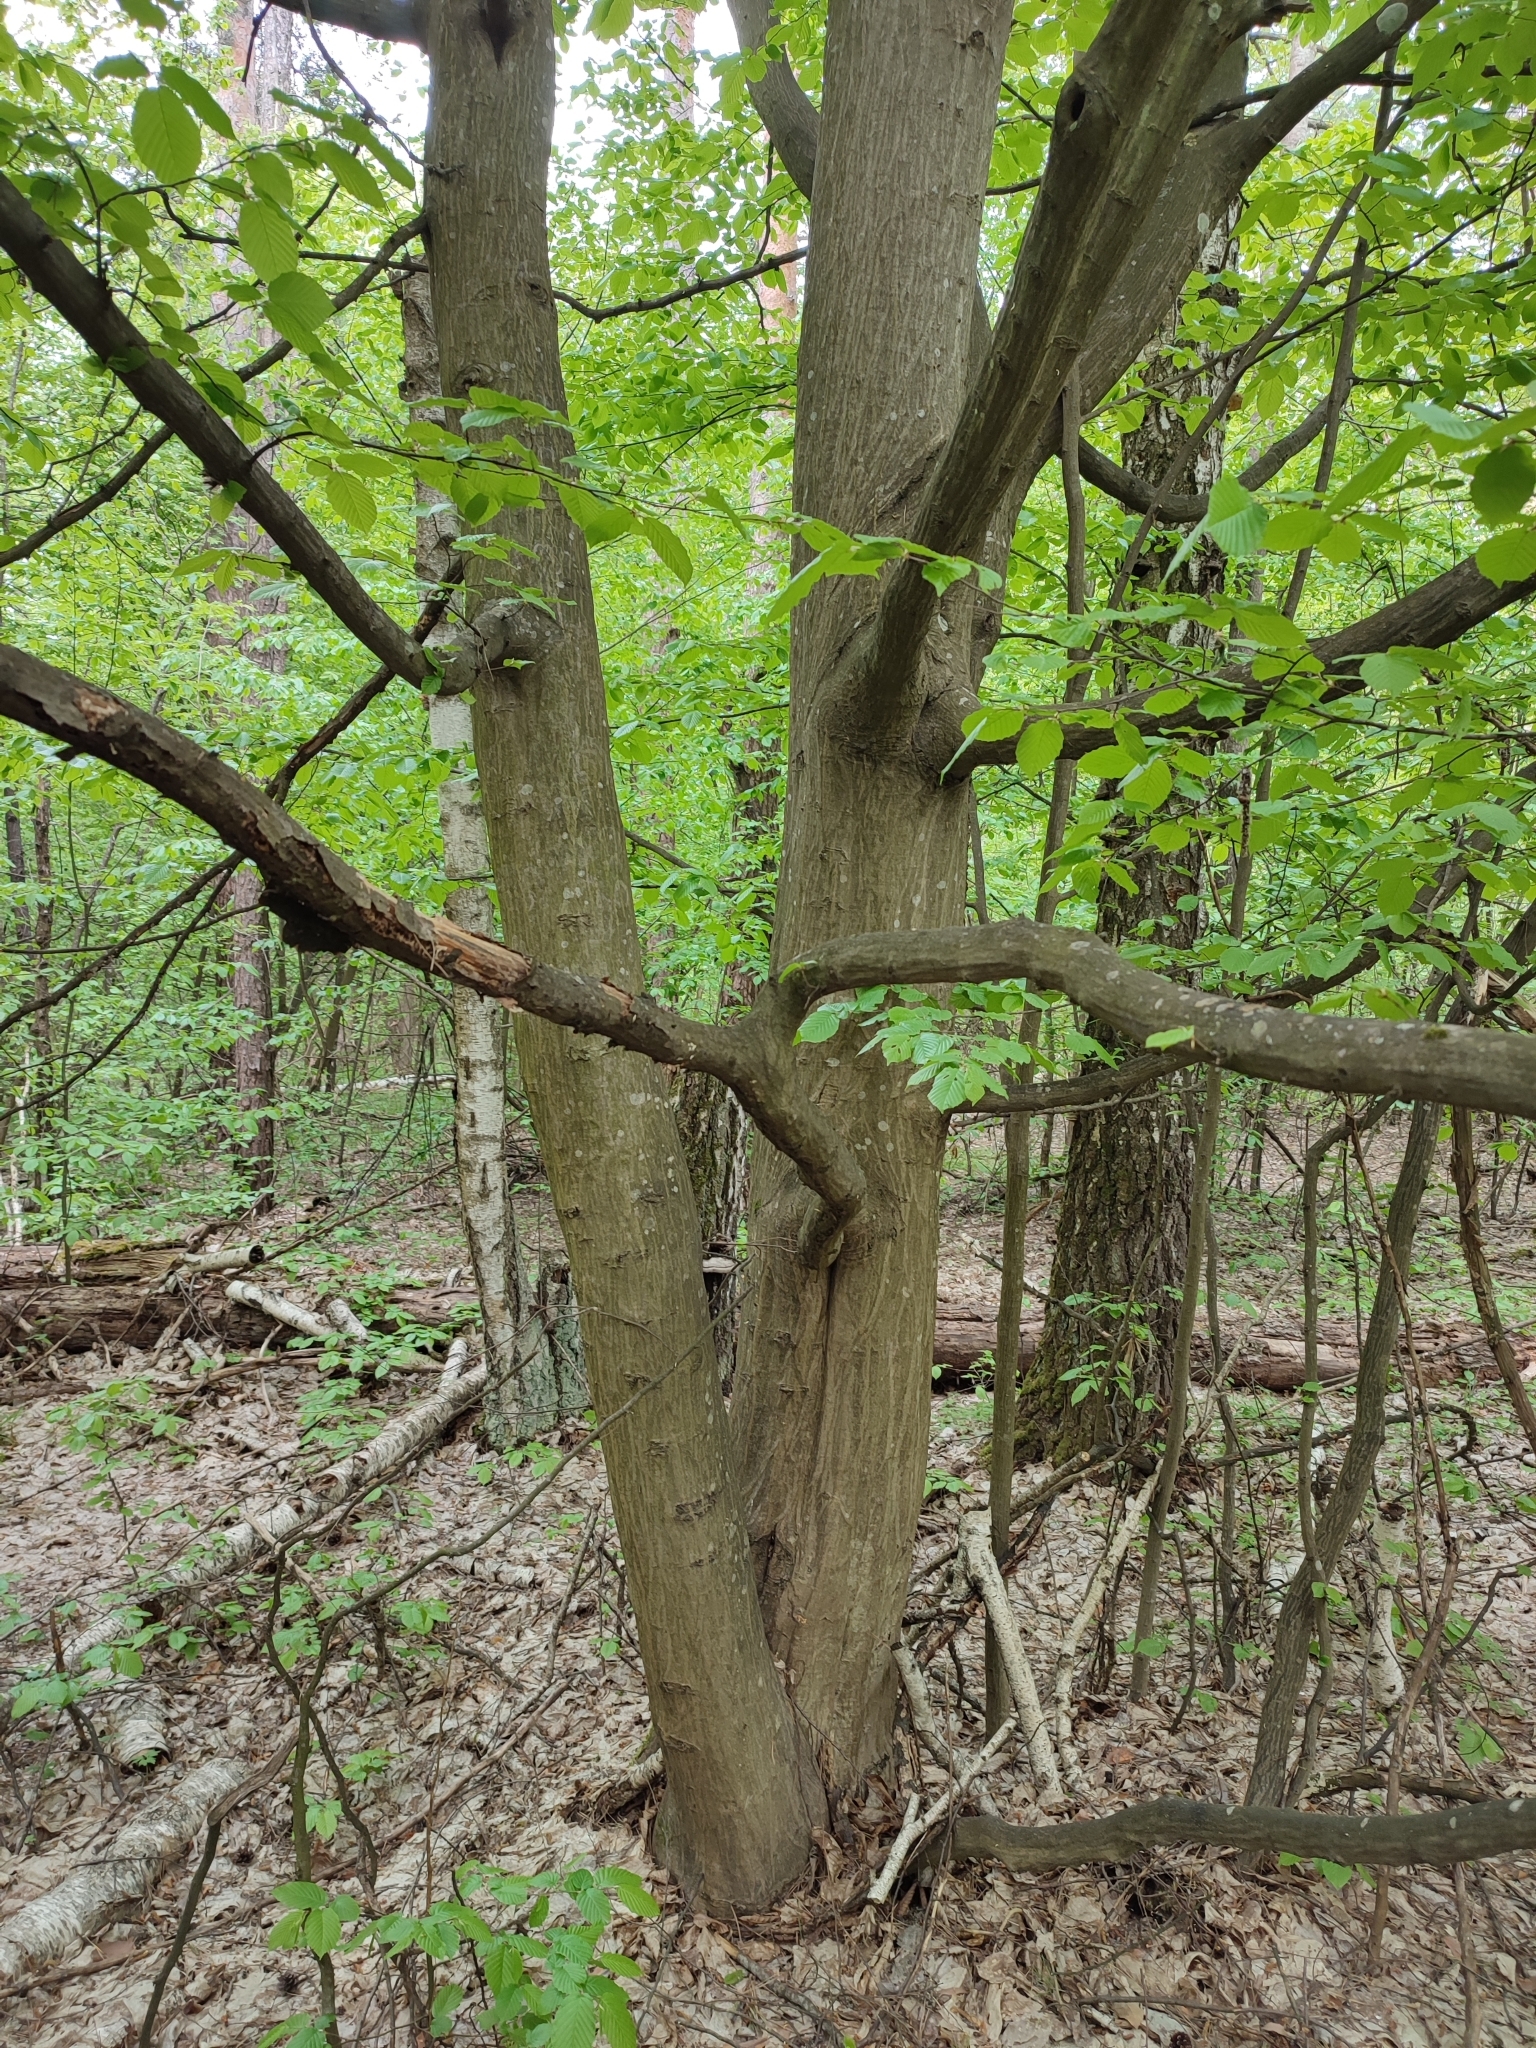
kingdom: Plantae
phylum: Tracheophyta
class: Magnoliopsida
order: Fagales
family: Betulaceae
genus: Carpinus
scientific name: Carpinus betulus
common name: Hornbeam
